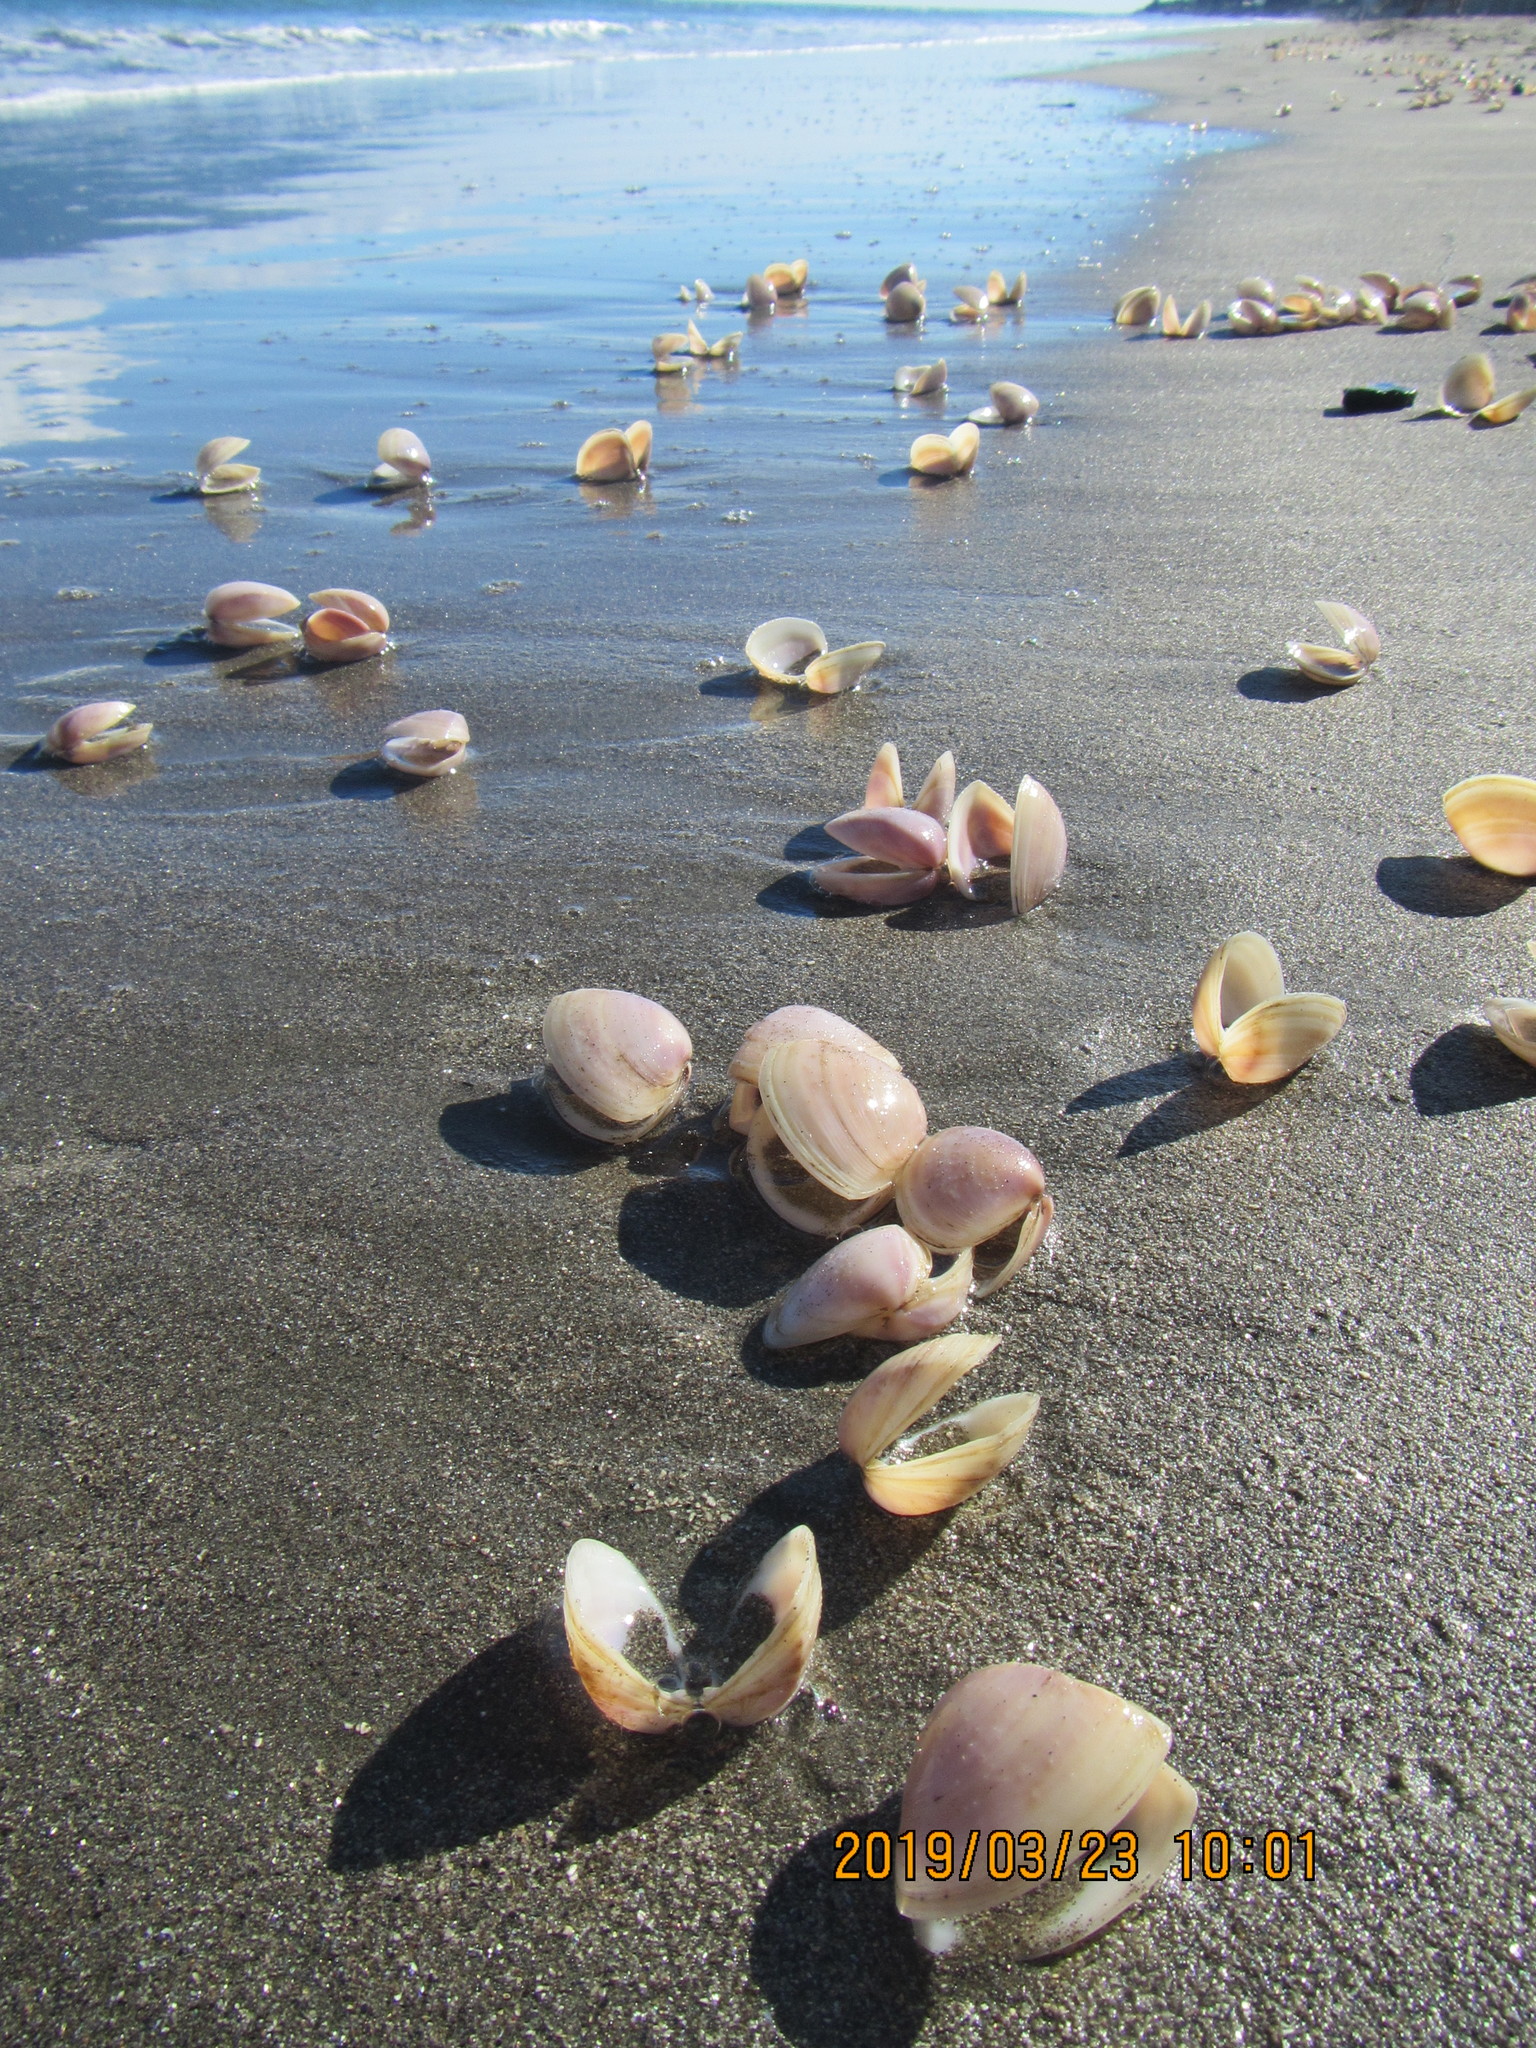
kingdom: Animalia
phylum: Mollusca
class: Bivalvia
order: Venerida
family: Mactridae
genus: Crassula
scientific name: Crassula aequilatera
